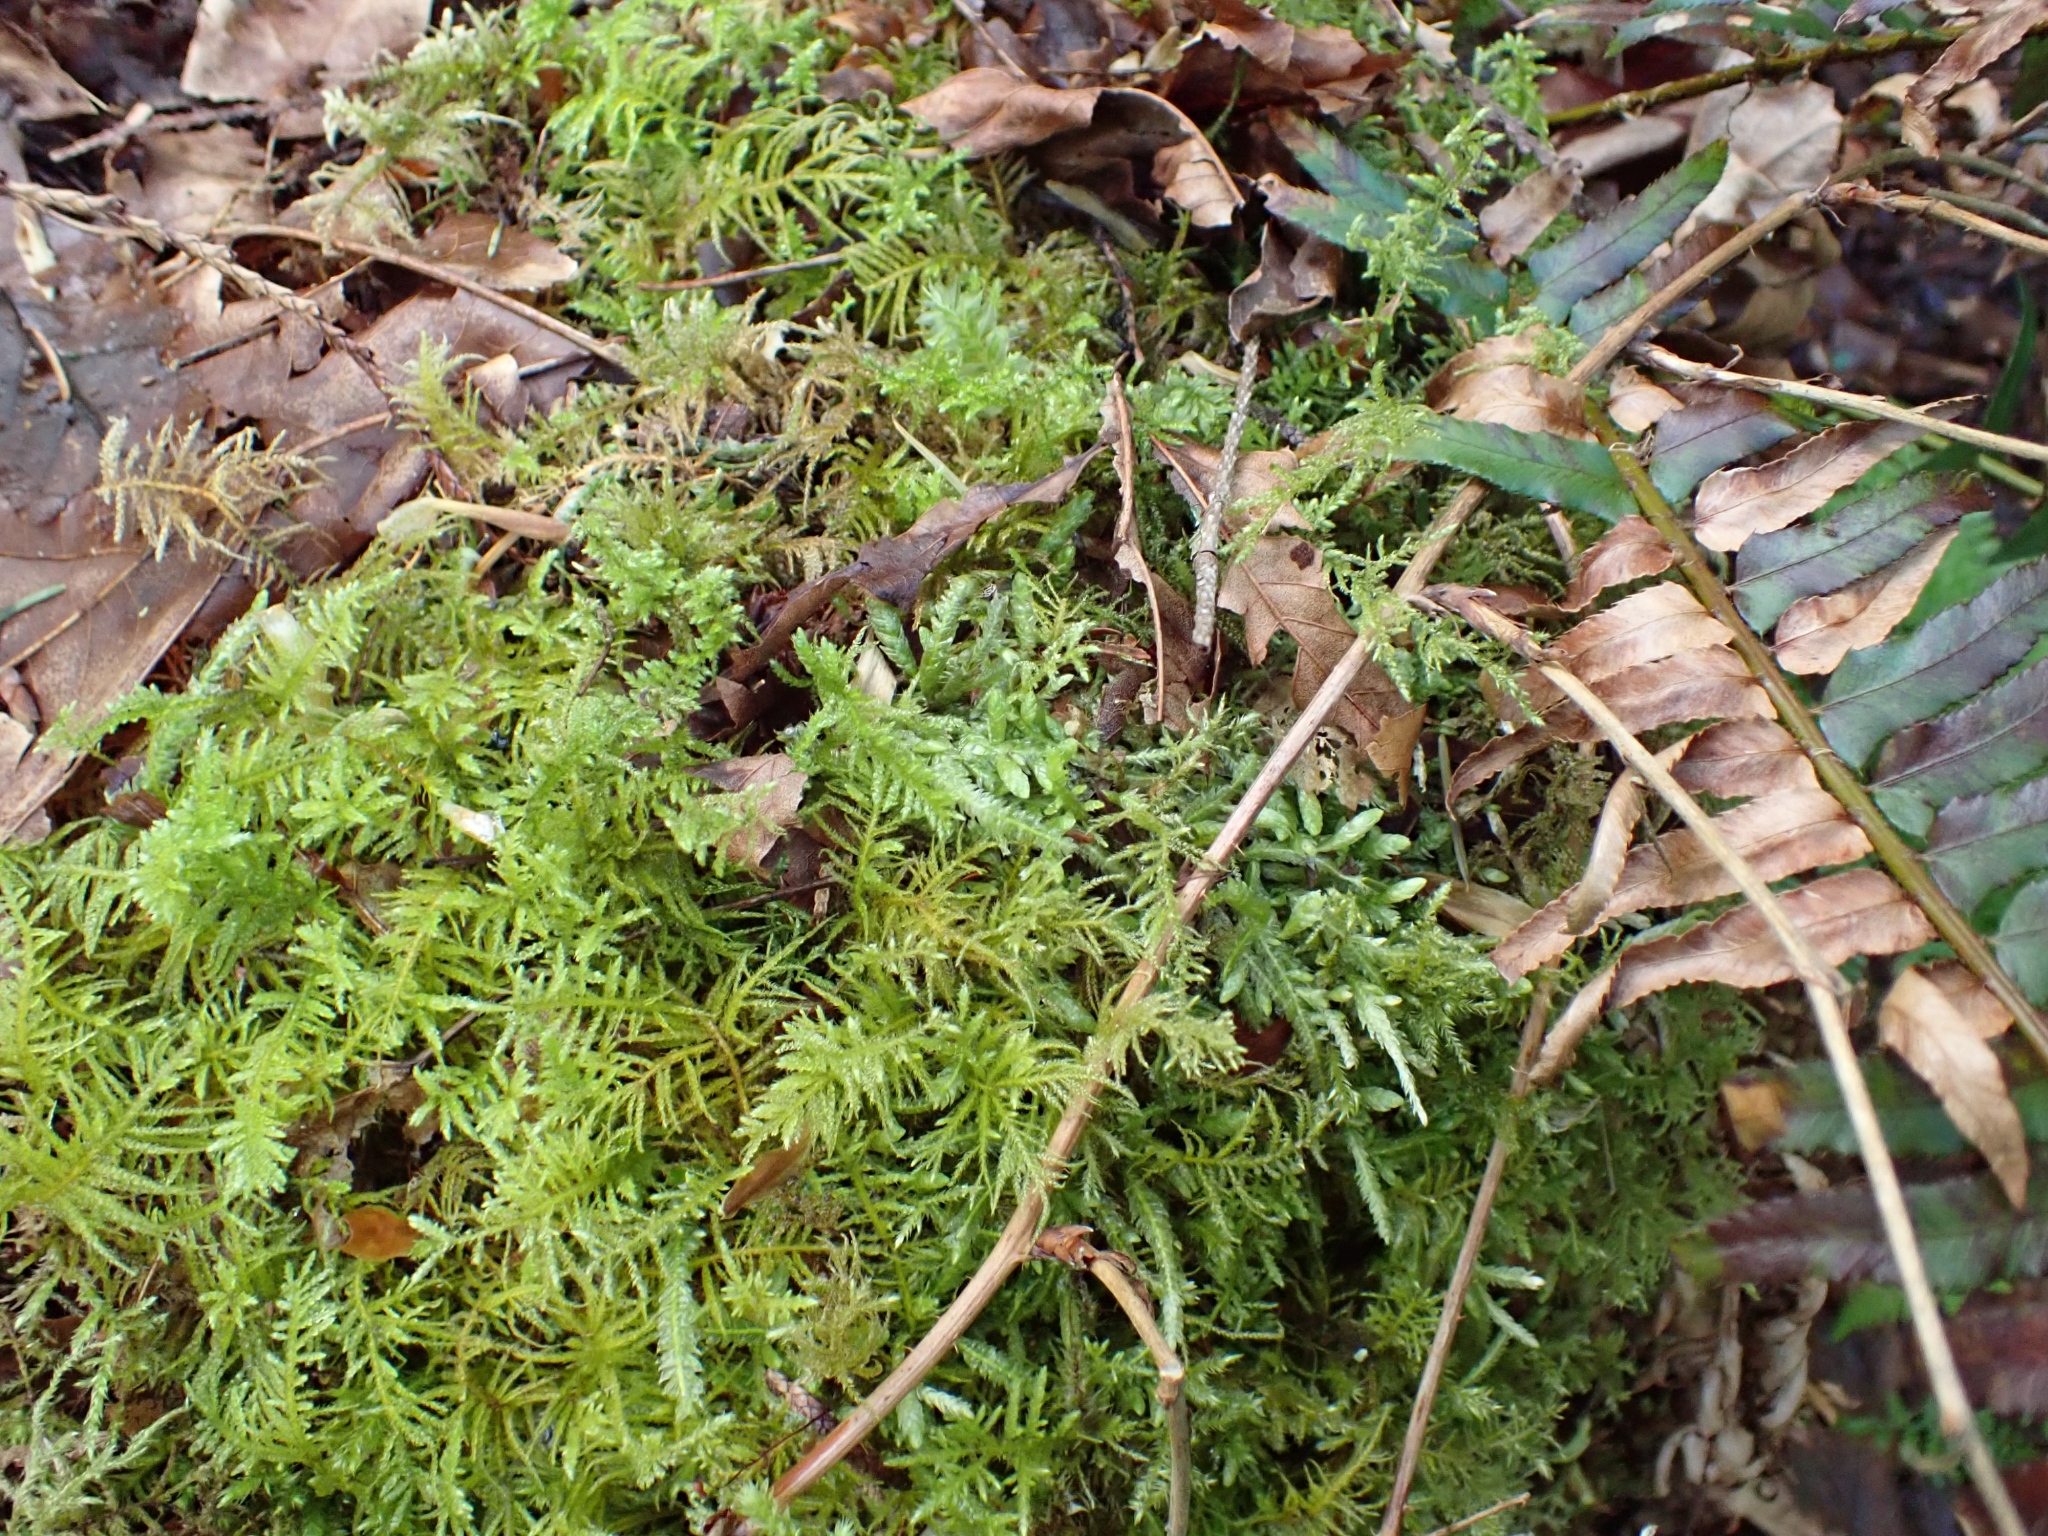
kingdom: Plantae
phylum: Bryophyta
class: Bryopsida
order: Hypnales
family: Plagiotheciaceae
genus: Plagiothecium
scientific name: Plagiothecium undulatum
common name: Waved silk-moss
